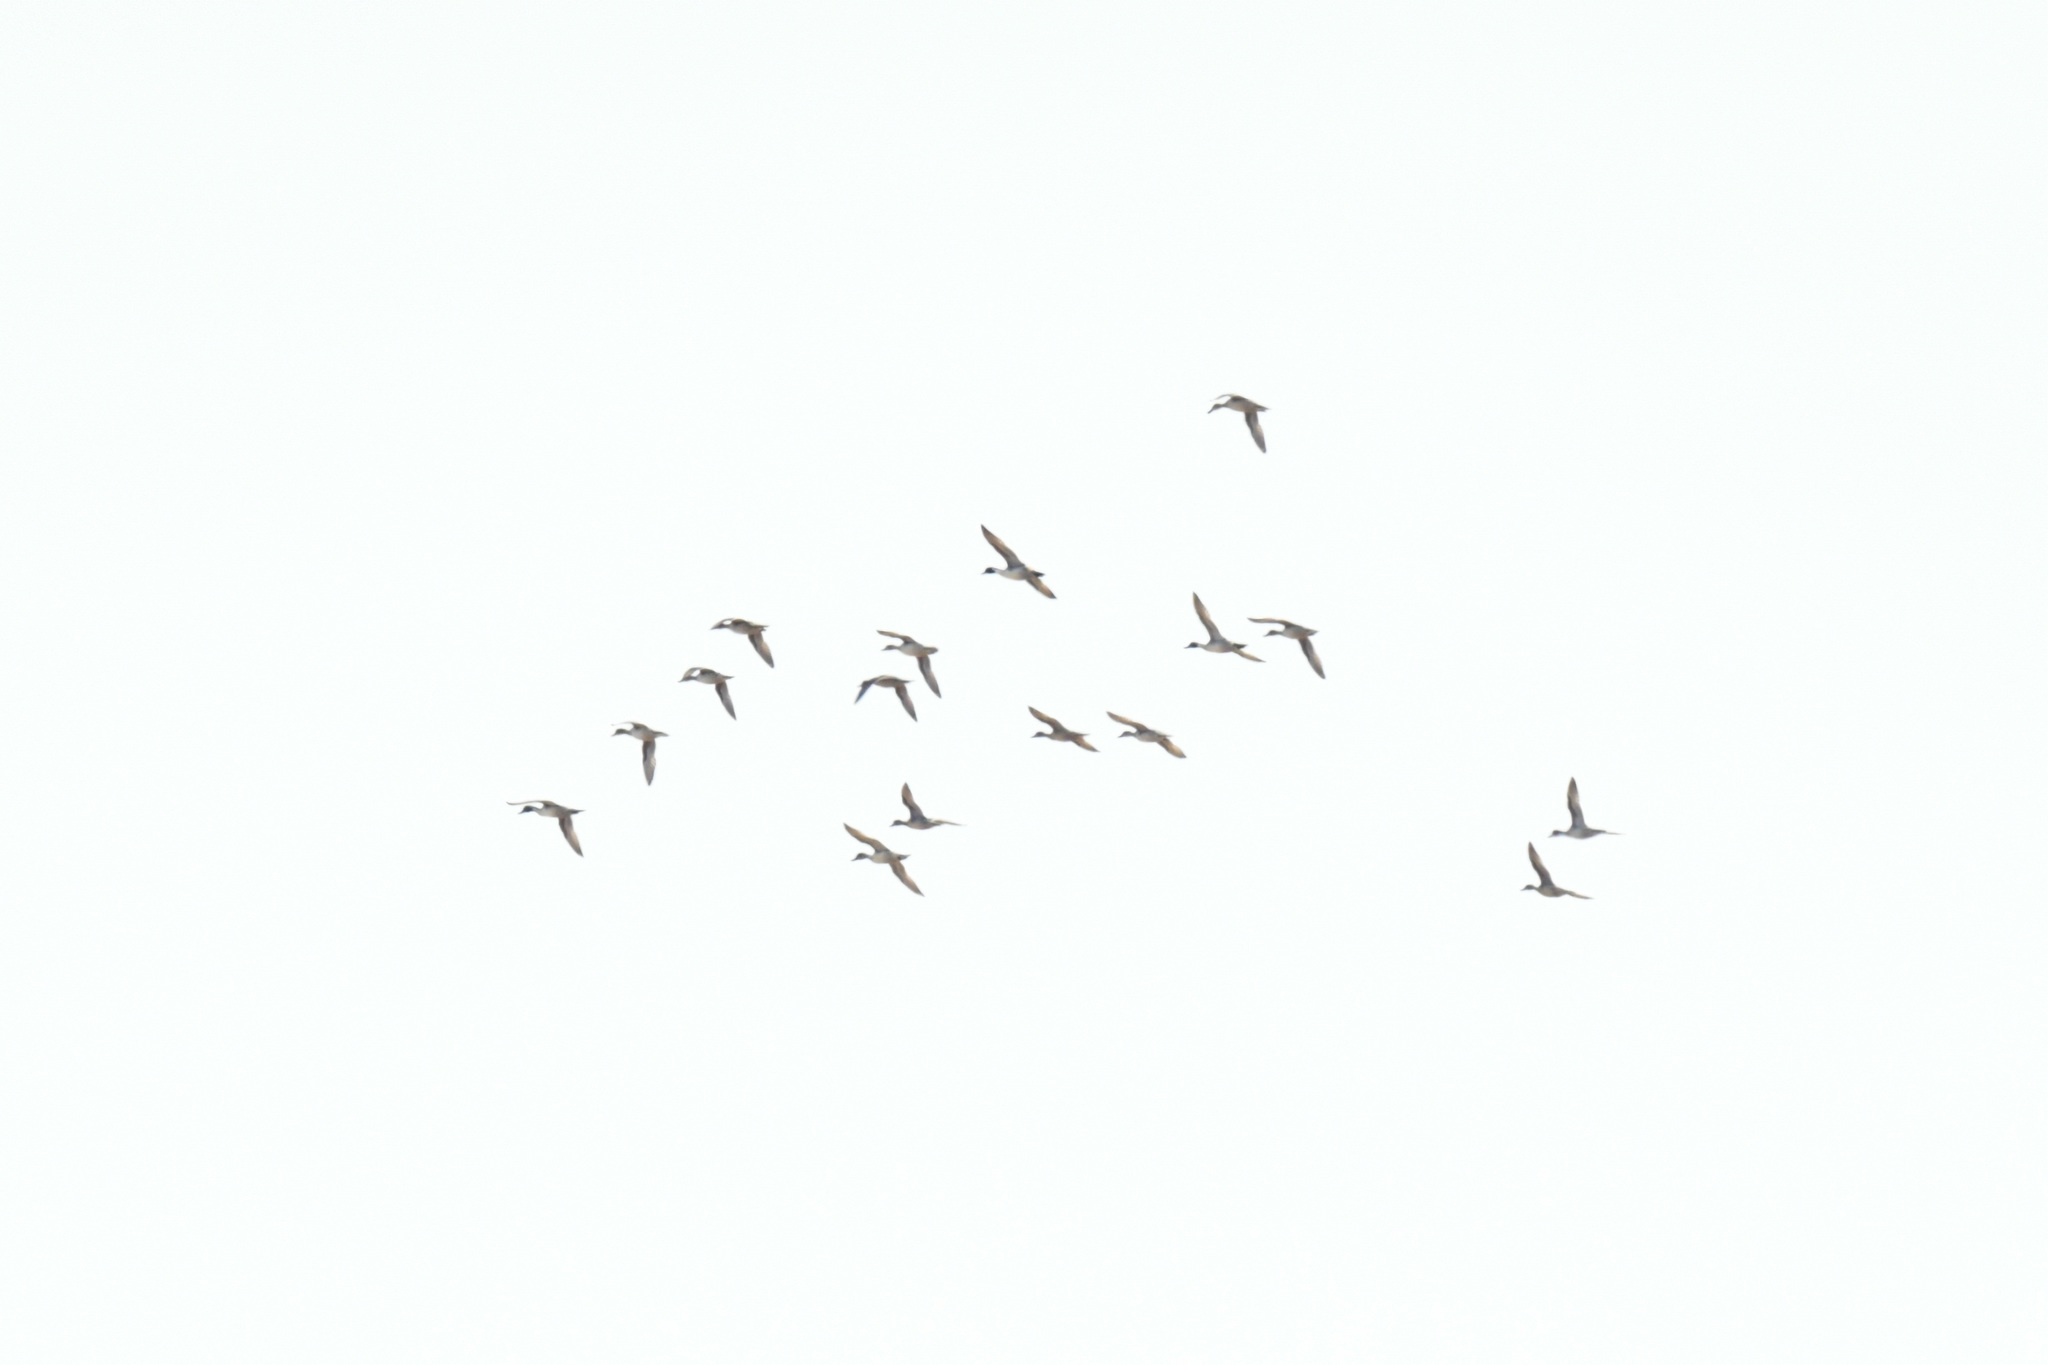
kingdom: Animalia
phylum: Chordata
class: Aves
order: Anseriformes
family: Anatidae
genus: Anas
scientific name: Anas acuta
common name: Northern pintail
